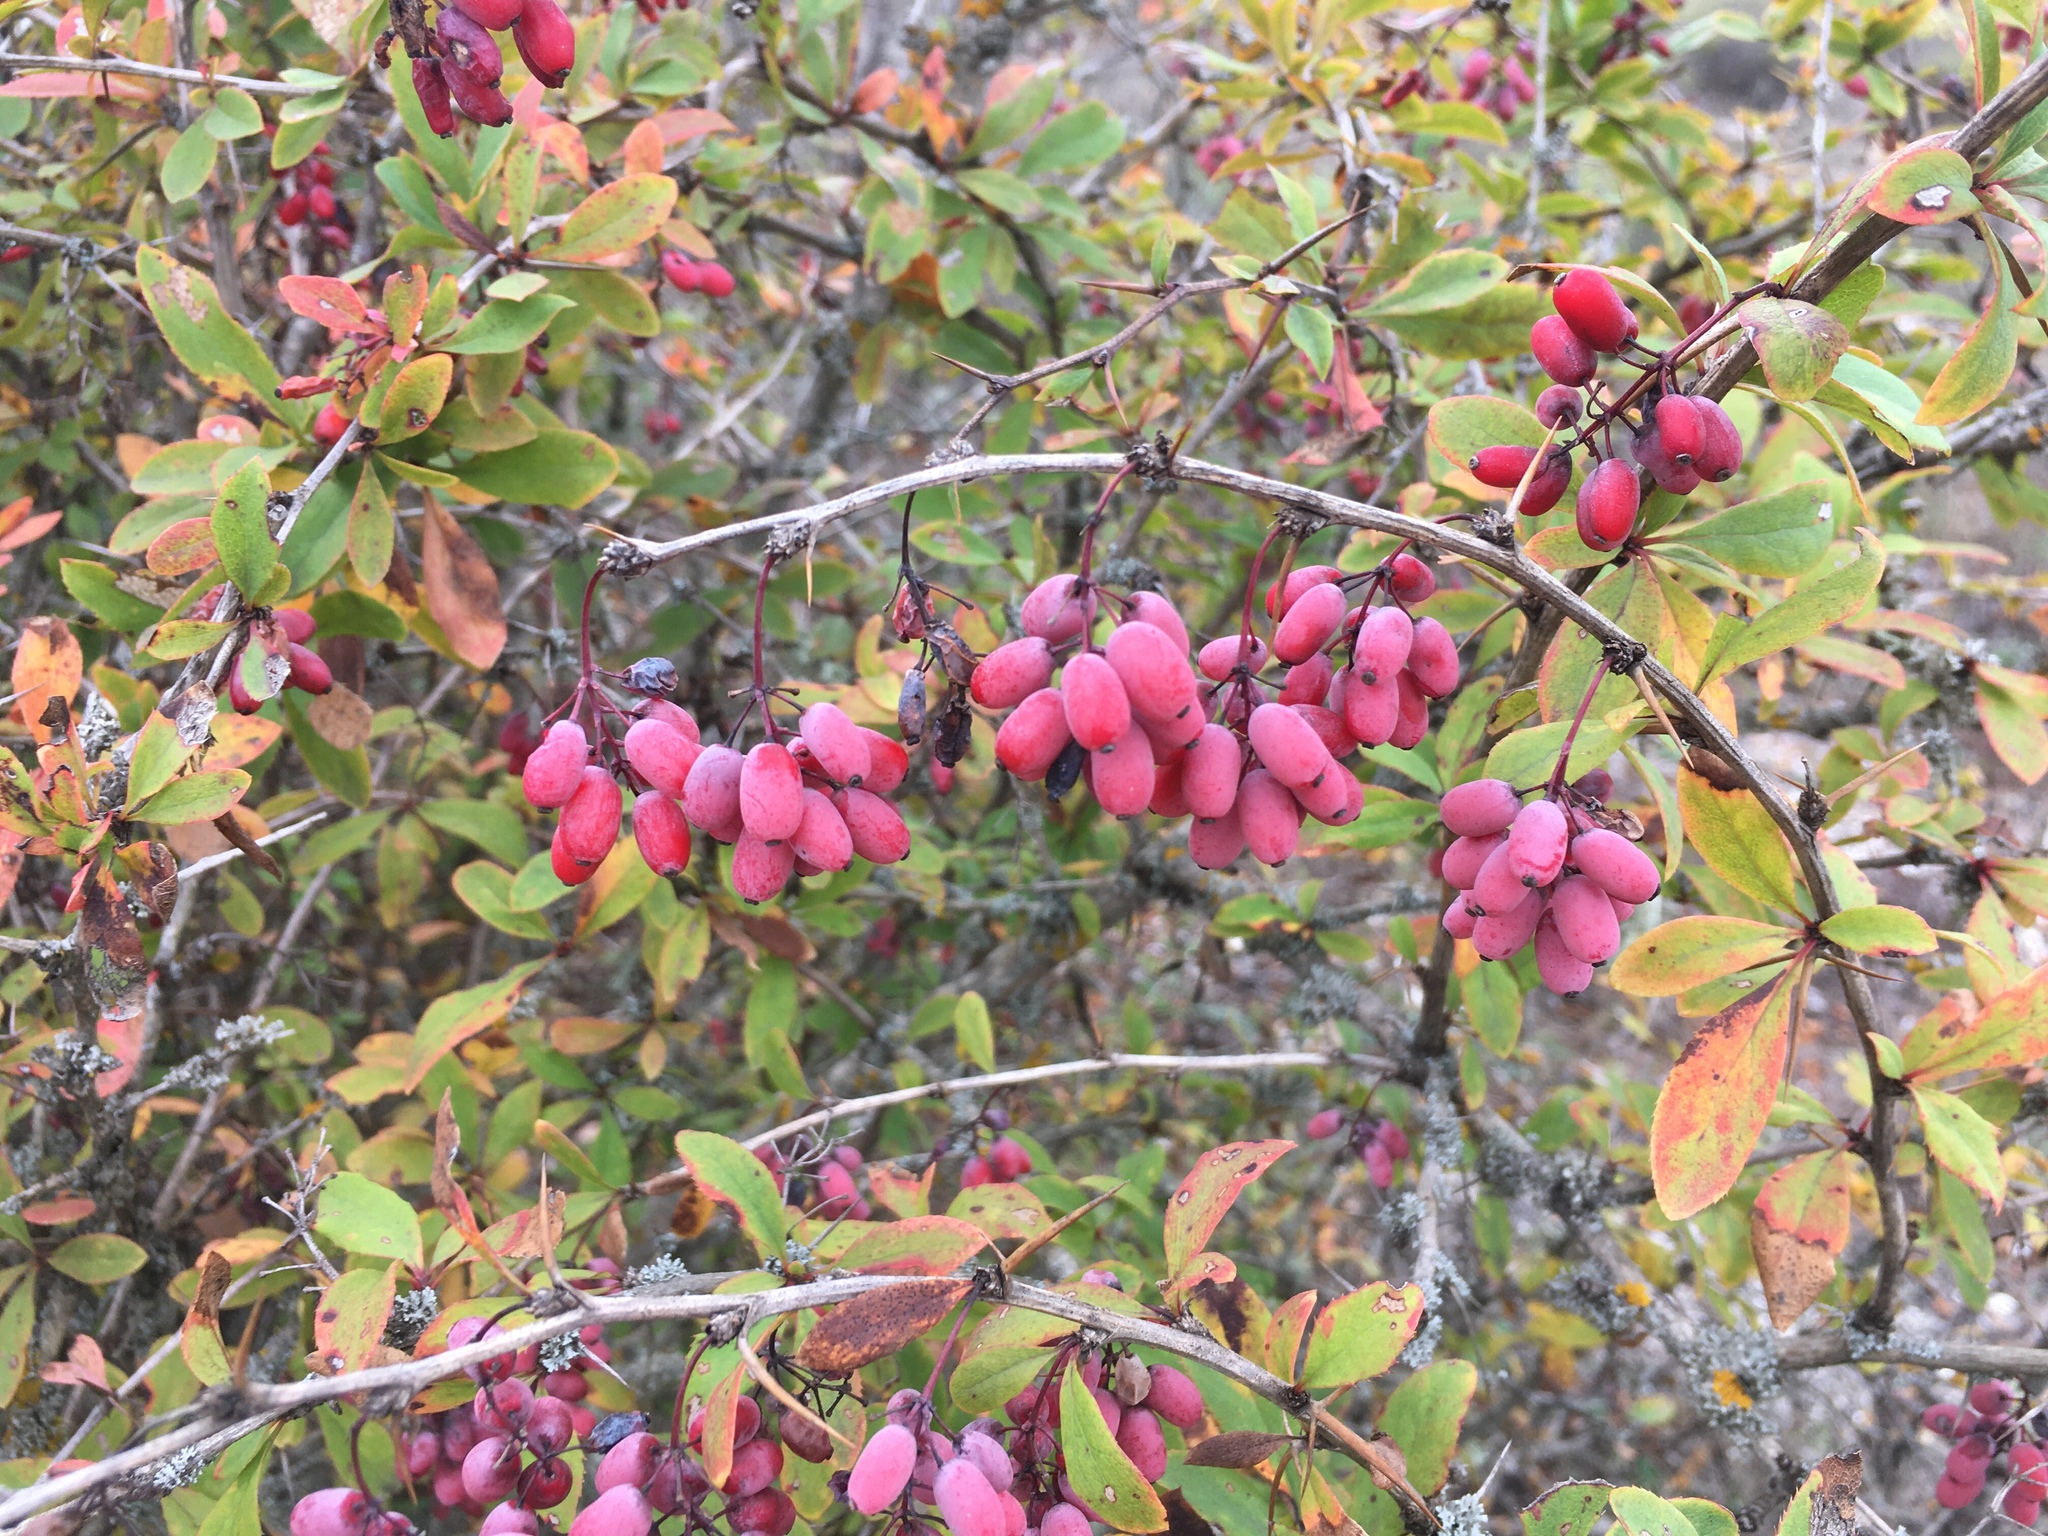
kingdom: Plantae
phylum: Tracheophyta
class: Magnoliopsida
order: Ranunculales
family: Berberidaceae
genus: Berberis
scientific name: Berberis vulgaris
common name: Barberry
